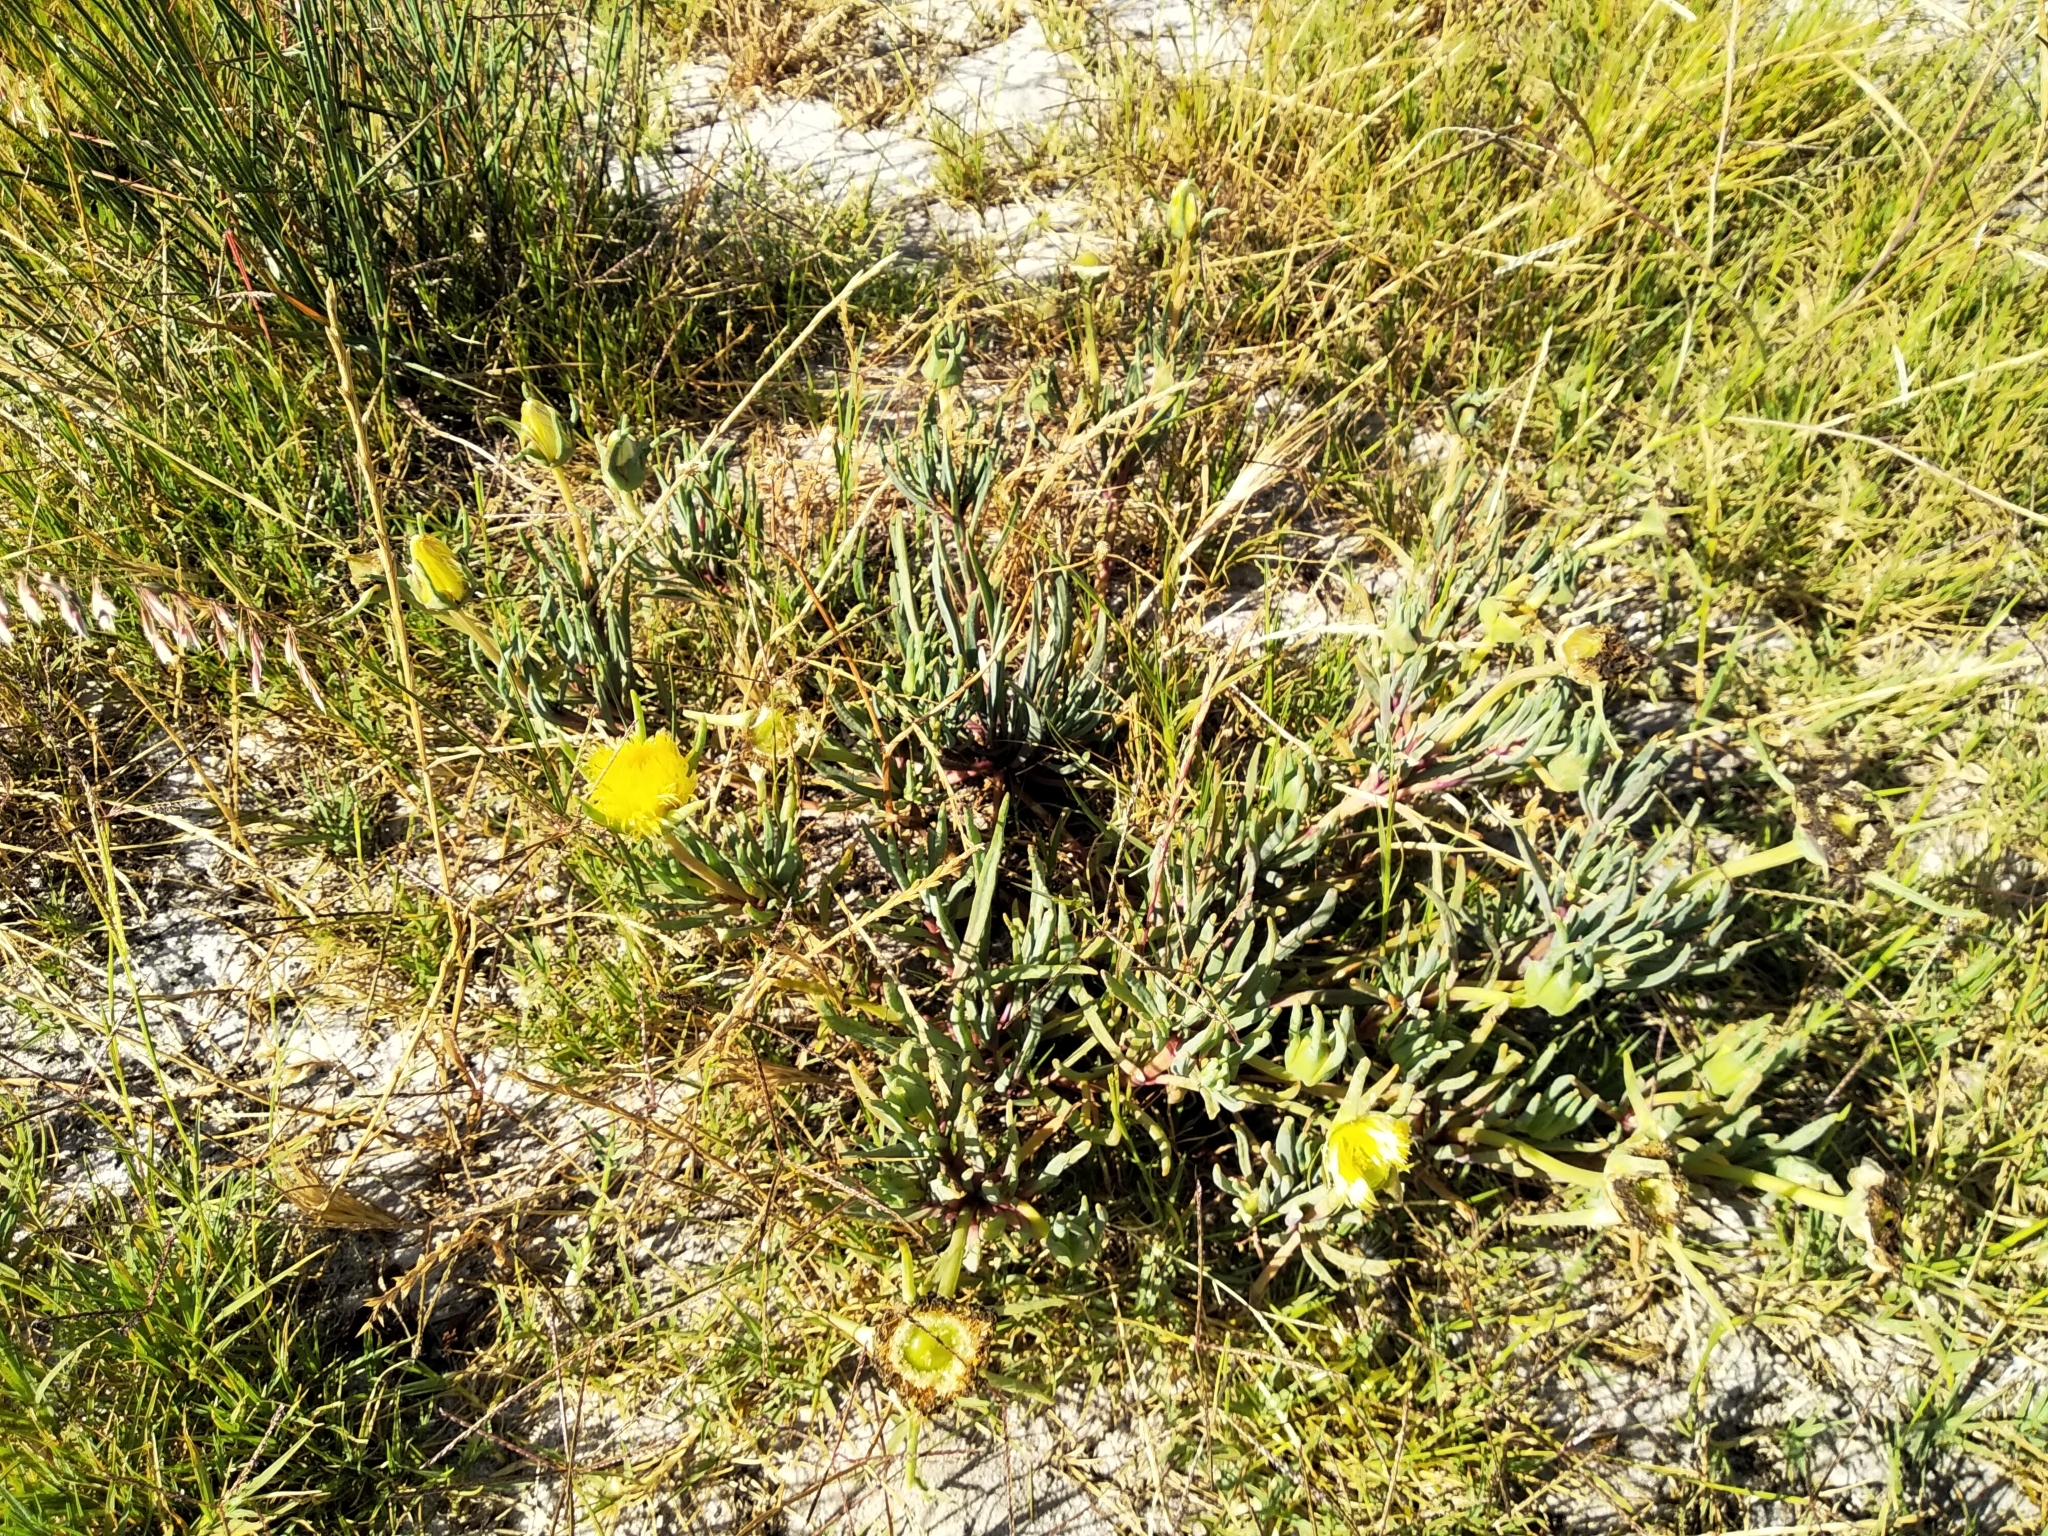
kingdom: Plantae
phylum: Tracheophyta
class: Magnoliopsida
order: Caryophyllales
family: Aizoaceae
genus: Conicosia
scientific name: Conicosia pugioniformis
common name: Narrow-leaved iceplant
